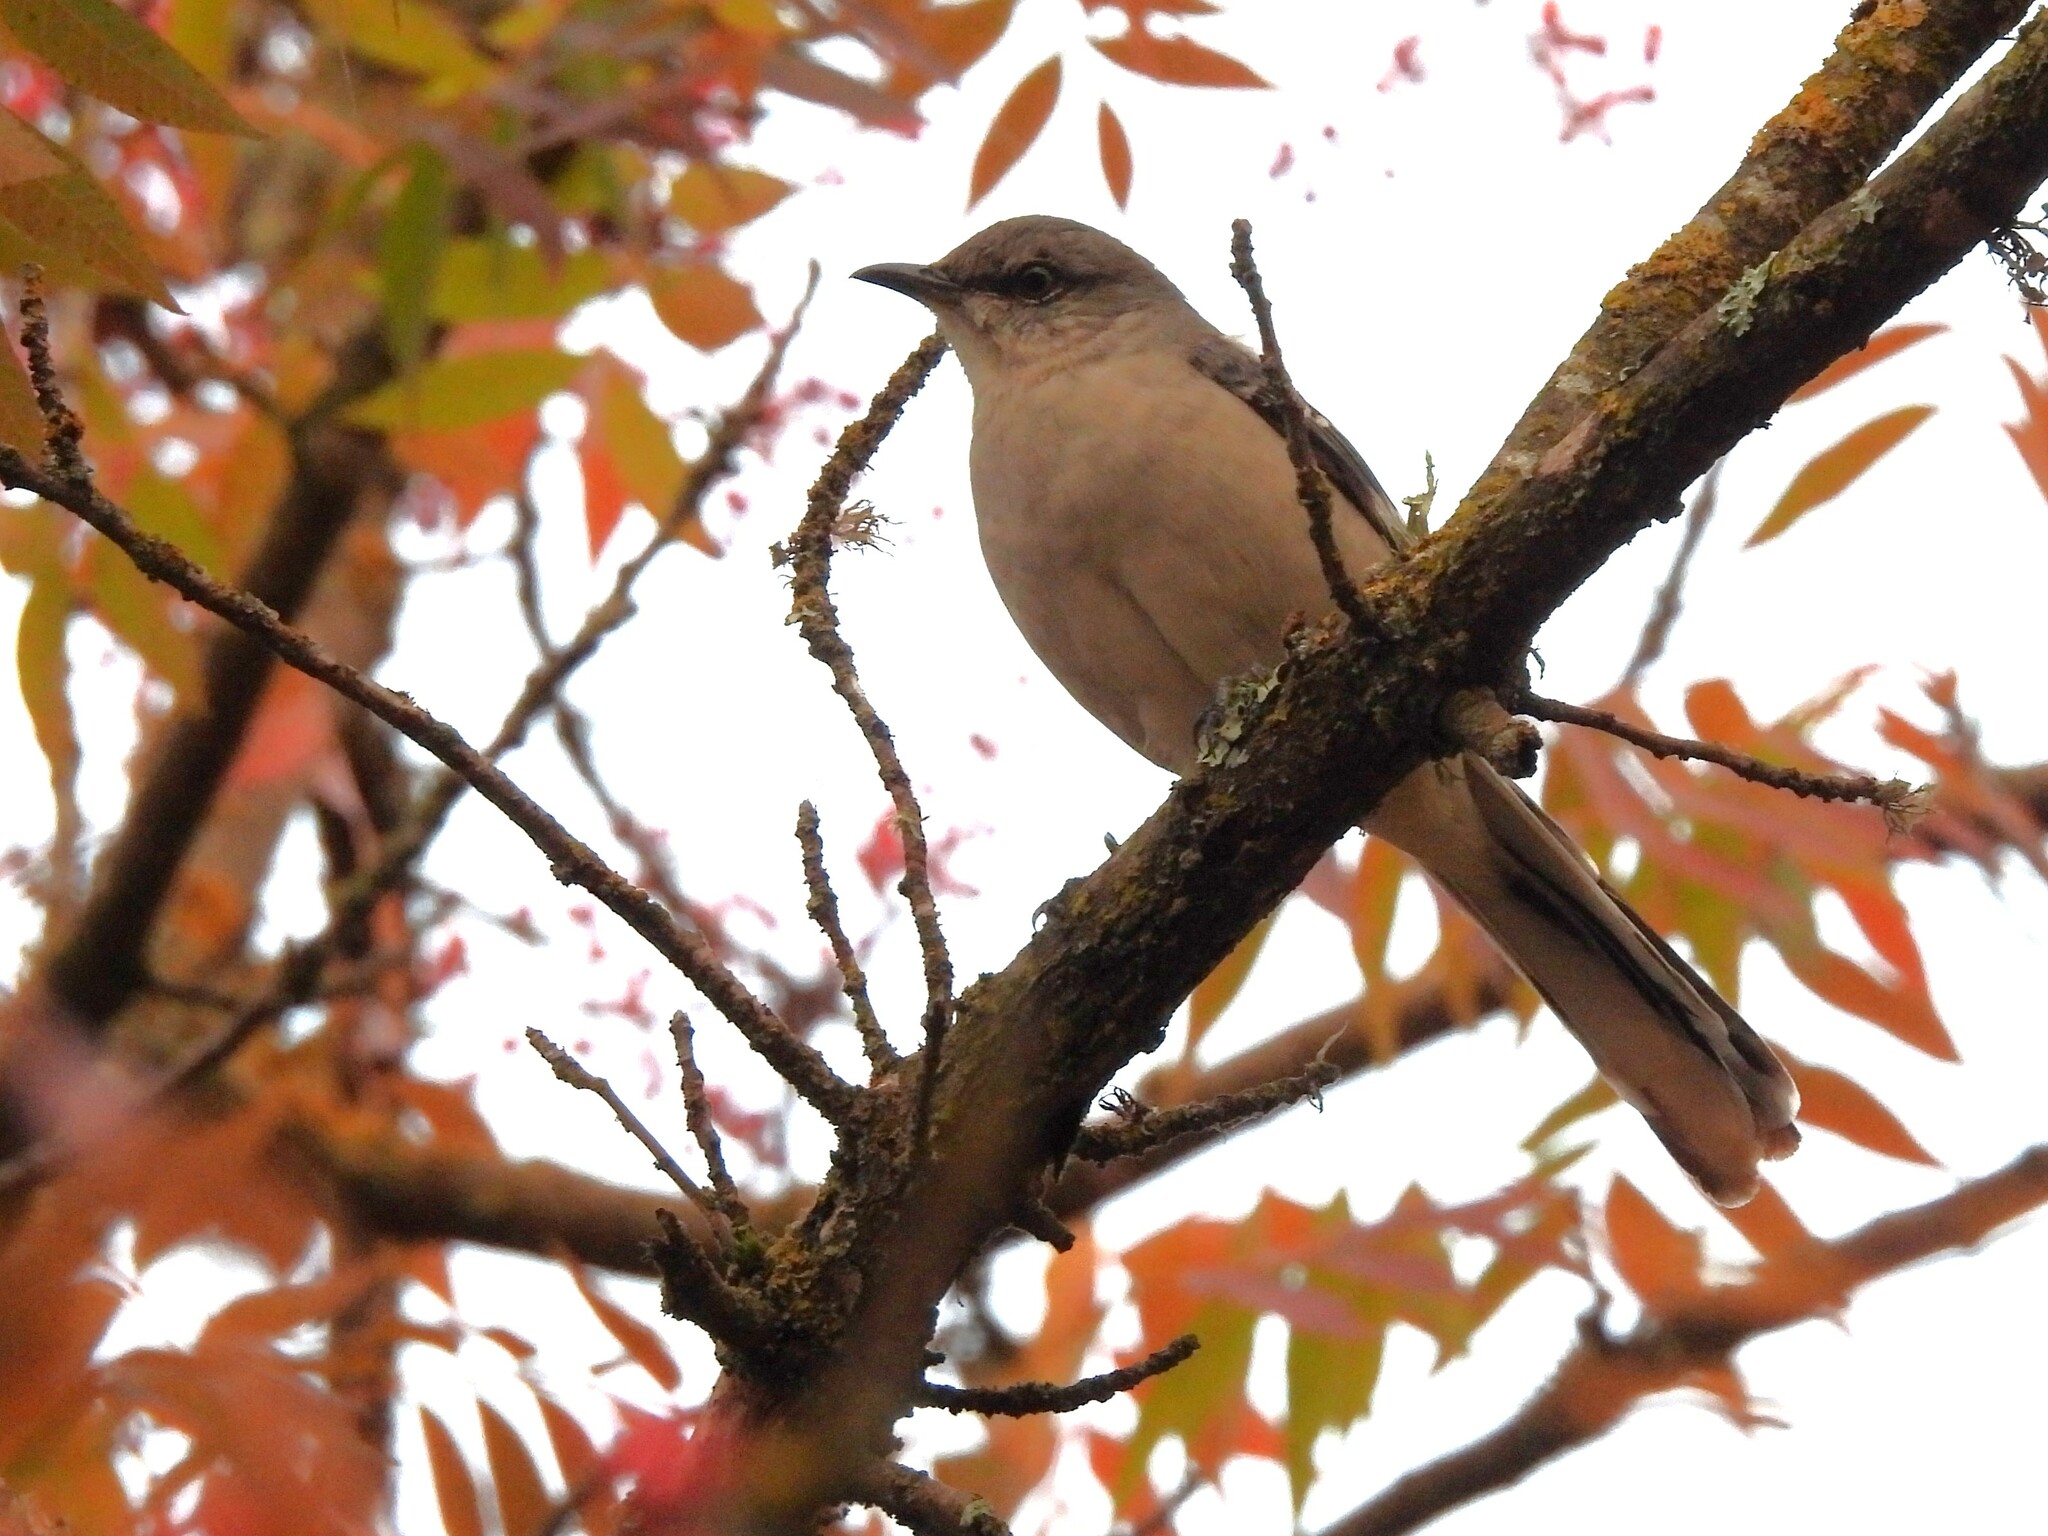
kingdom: Animalia
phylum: Chordata
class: Aves
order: Passeriformes
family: Mimidae
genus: Mimus
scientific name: Mimus polyglottos
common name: Northern mockingbird
